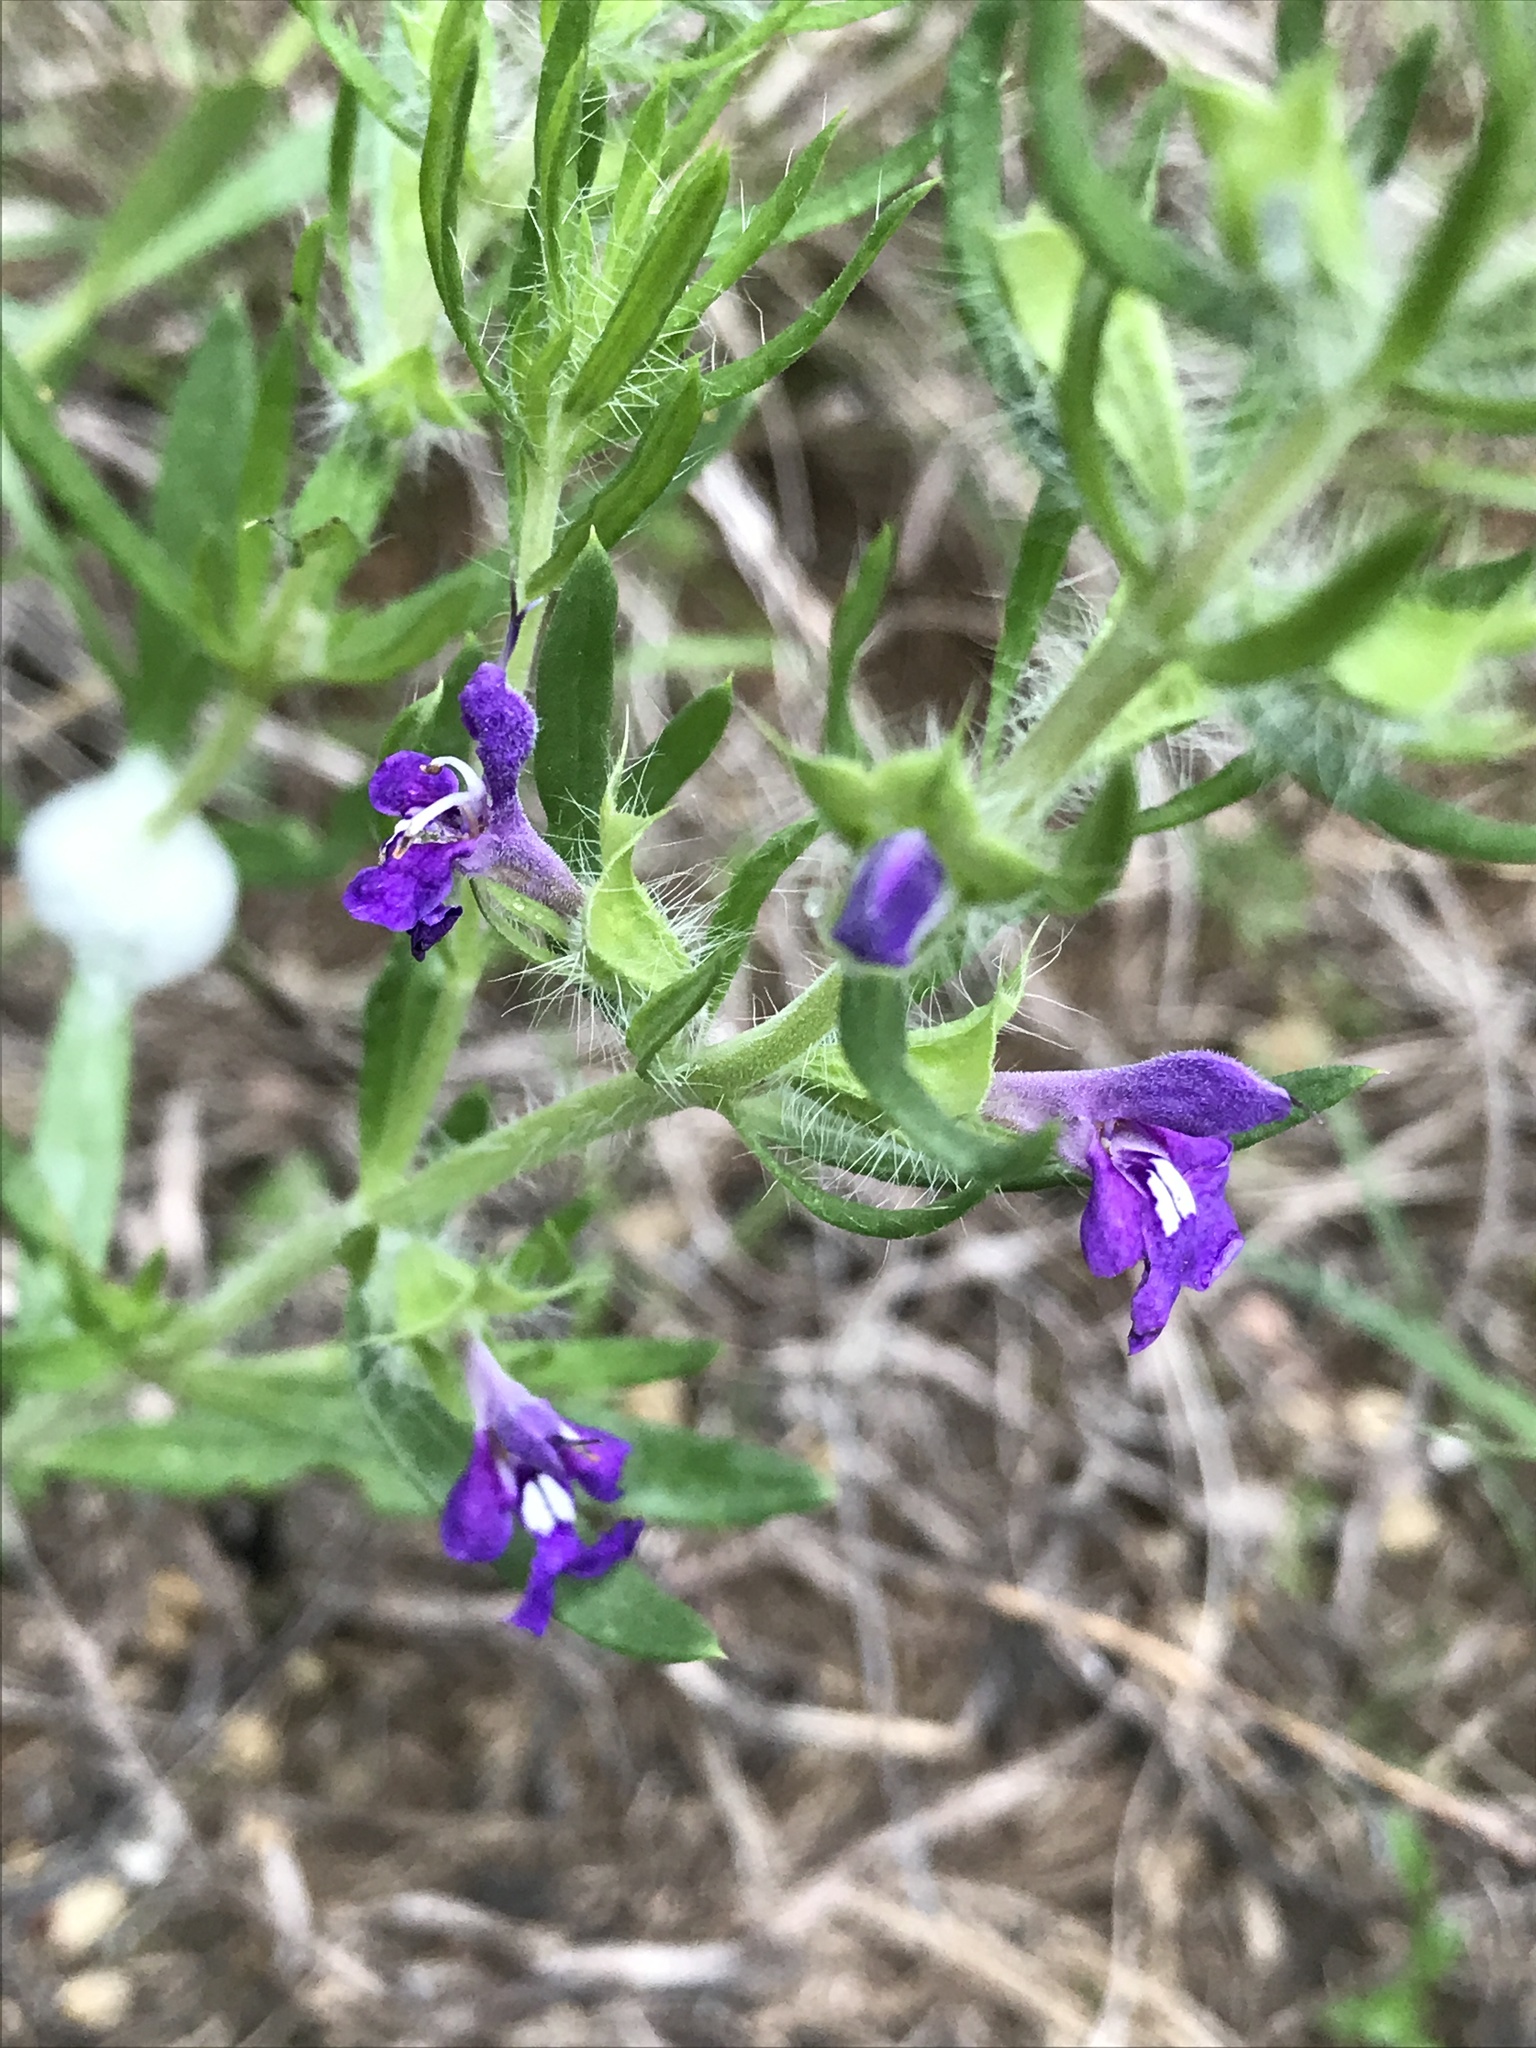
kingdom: Plantae
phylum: Tracheophyta
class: Magnoliopsida
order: Lamiales
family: Lamiaceae
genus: Salvia
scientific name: Salvia texana
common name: Texas sage
